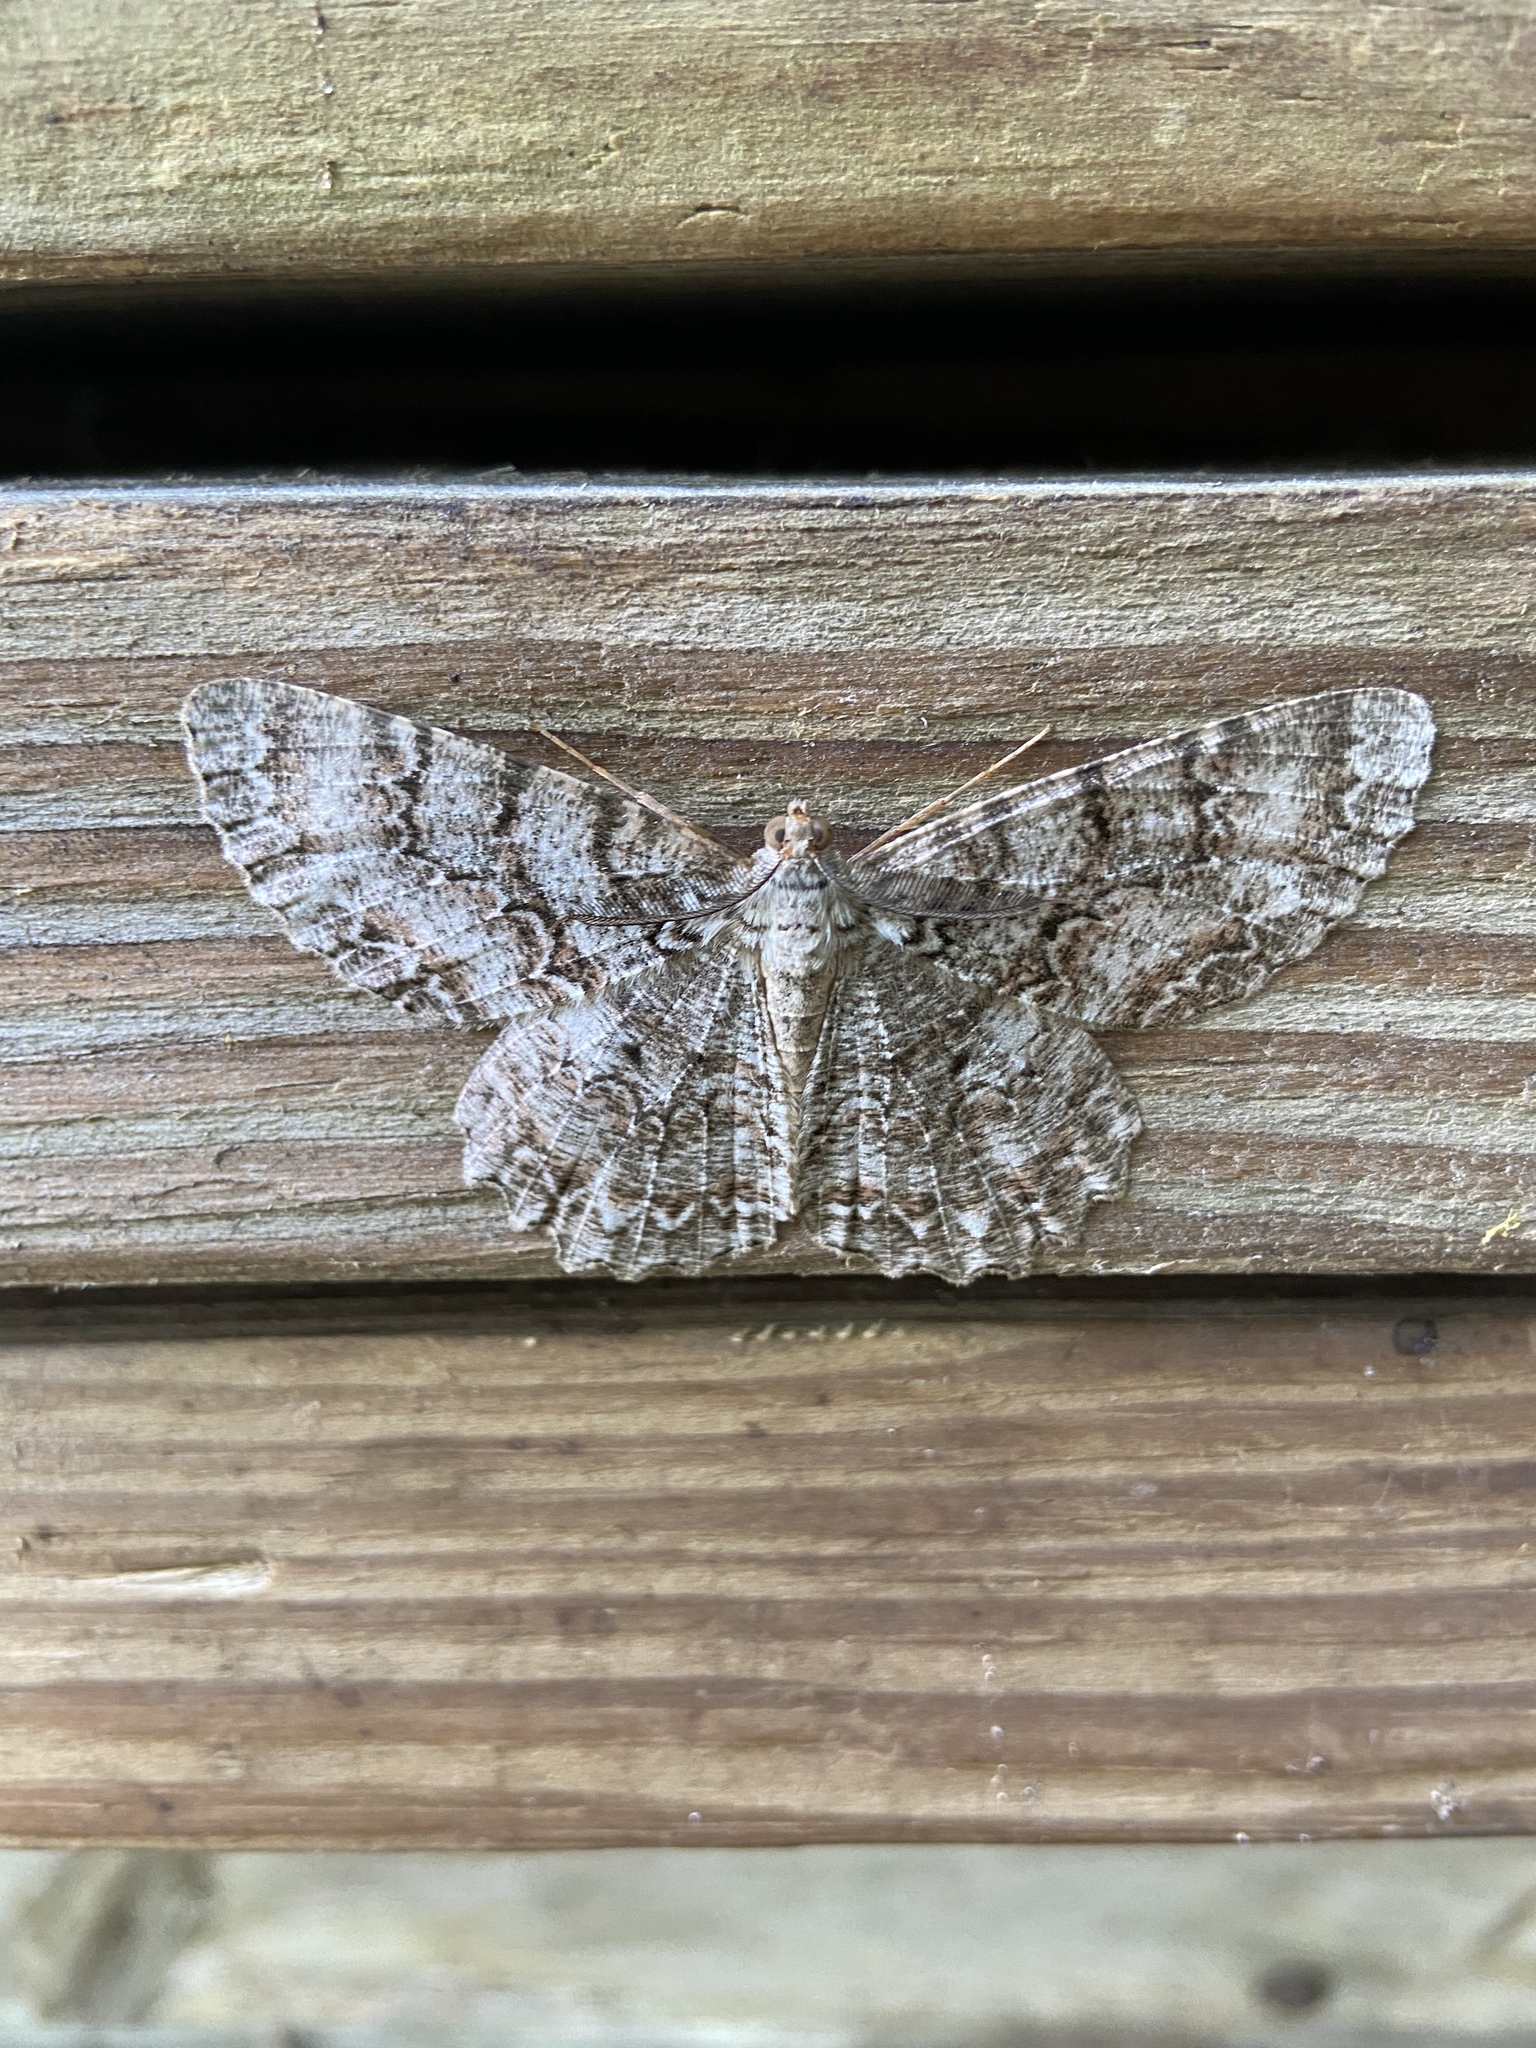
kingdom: Animalia
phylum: Arthropoda
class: Insecta
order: Lepidoptera
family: Geometridae
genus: Epimecis
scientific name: Epimecis hortaria
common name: Tulip-tree beauty
